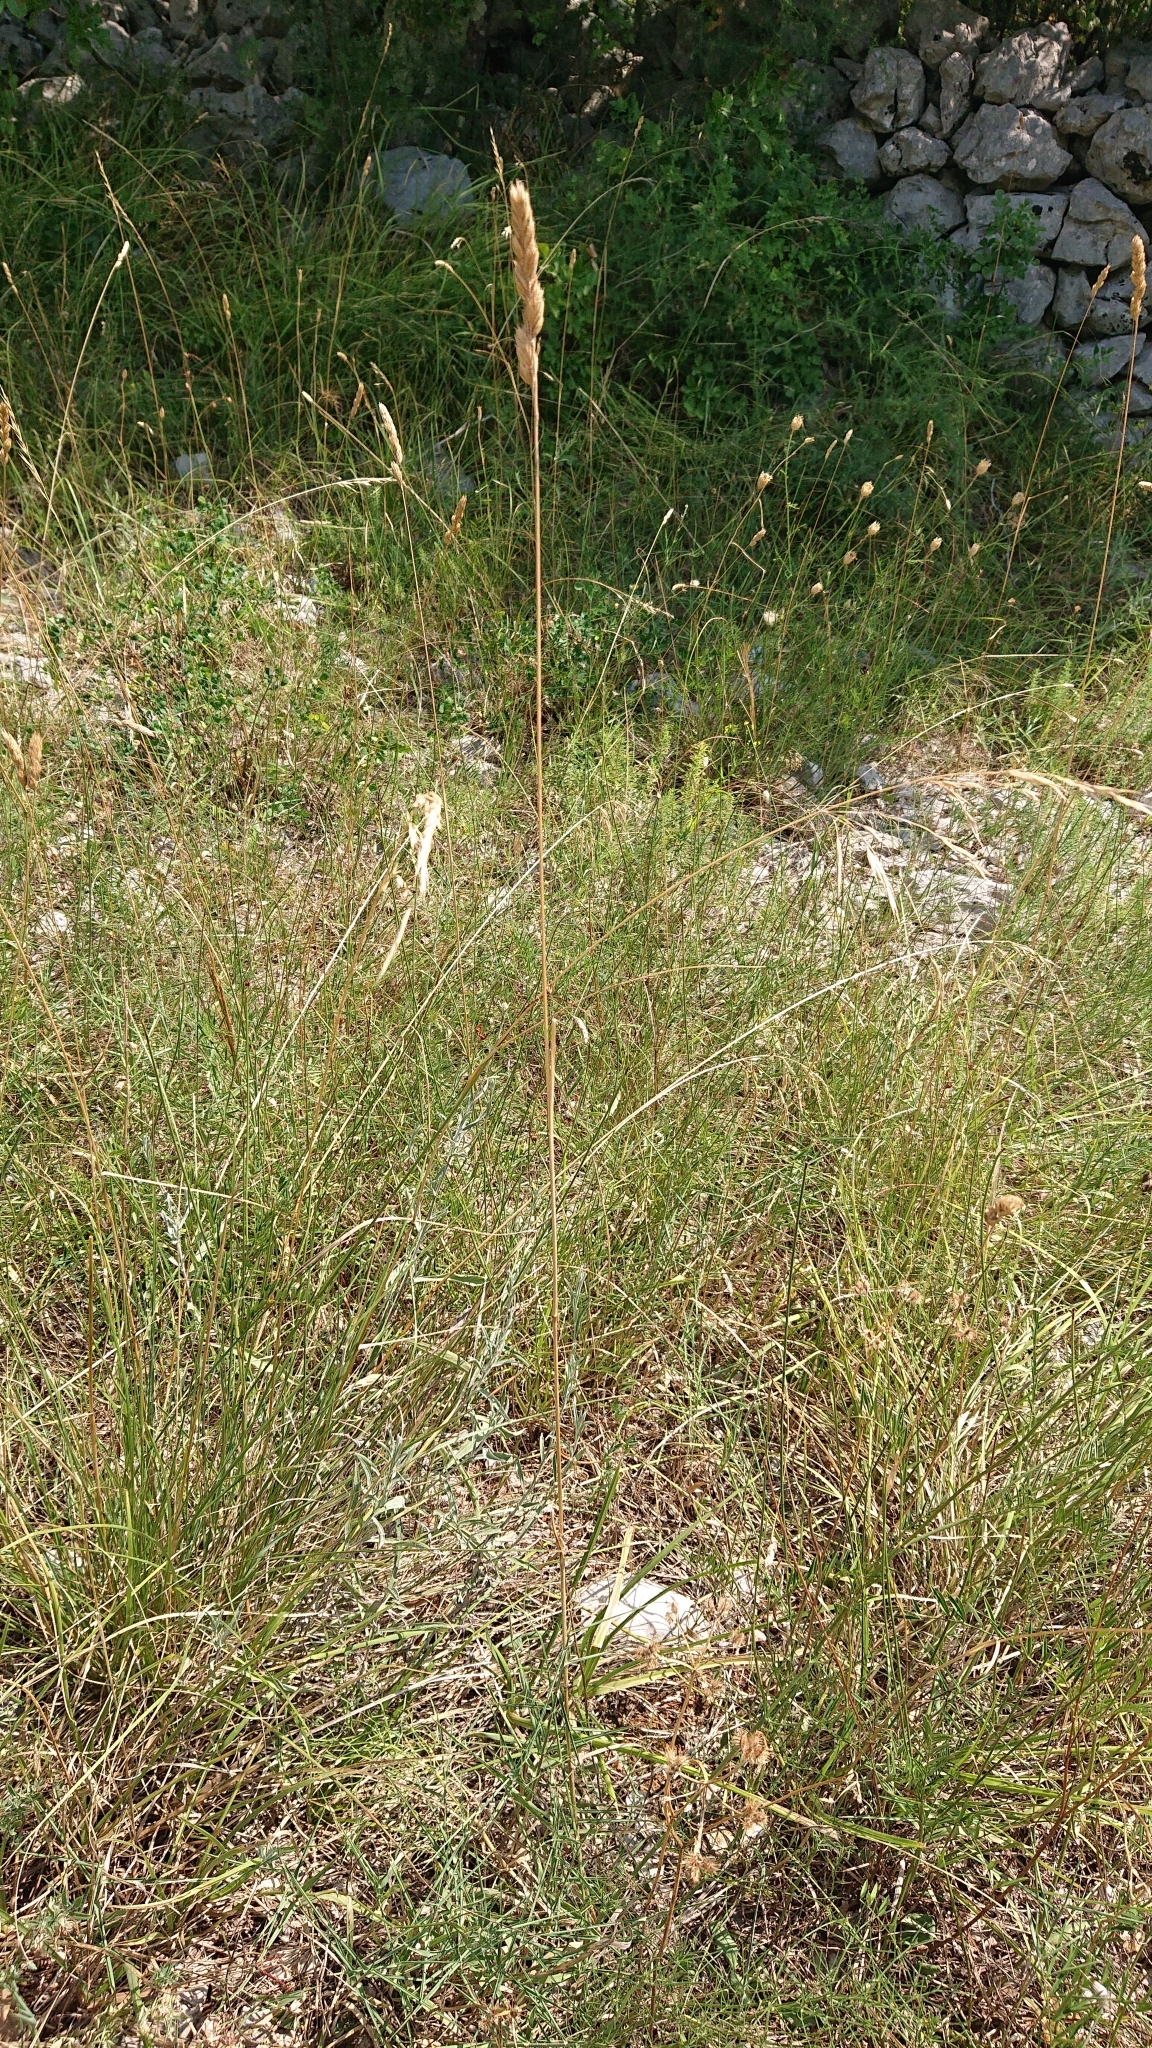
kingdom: Plantae
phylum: Tracheophyta
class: Liliopsida
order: Poales
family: Poaceae
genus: Dactylis
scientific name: Dactylis glomerata
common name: Orchardgrass
